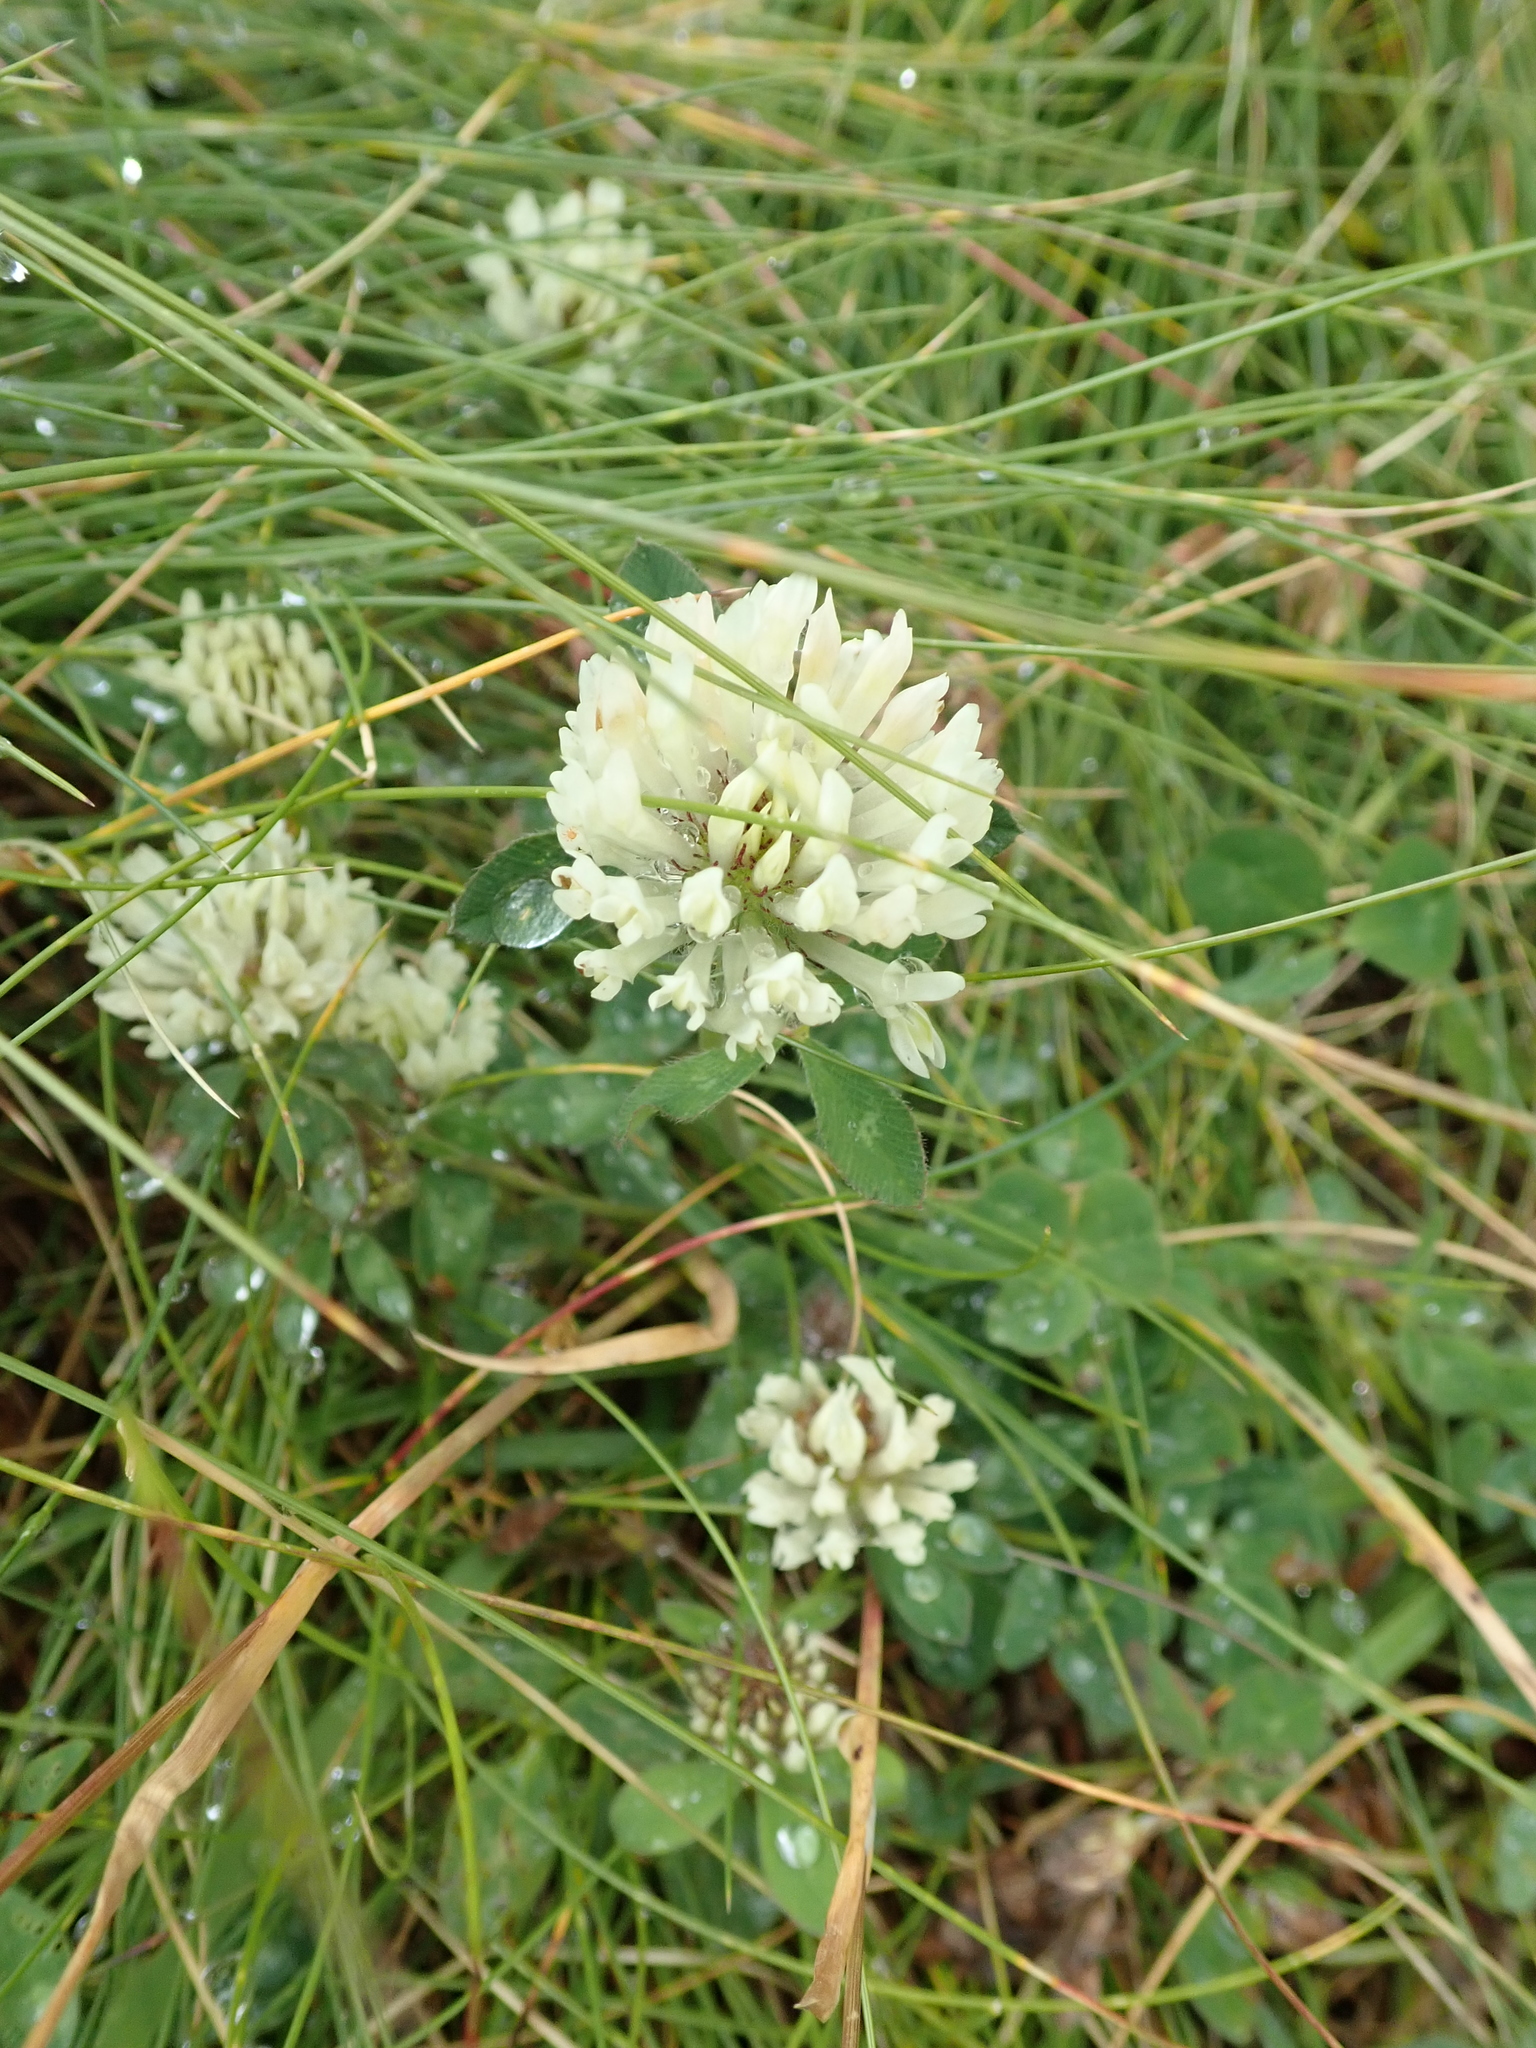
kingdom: Plantae
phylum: Tracheophyta
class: Magnoliopsida
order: Fabales
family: Fabaceae
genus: Trifolium
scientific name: Trifolium pratense
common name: Red clover
